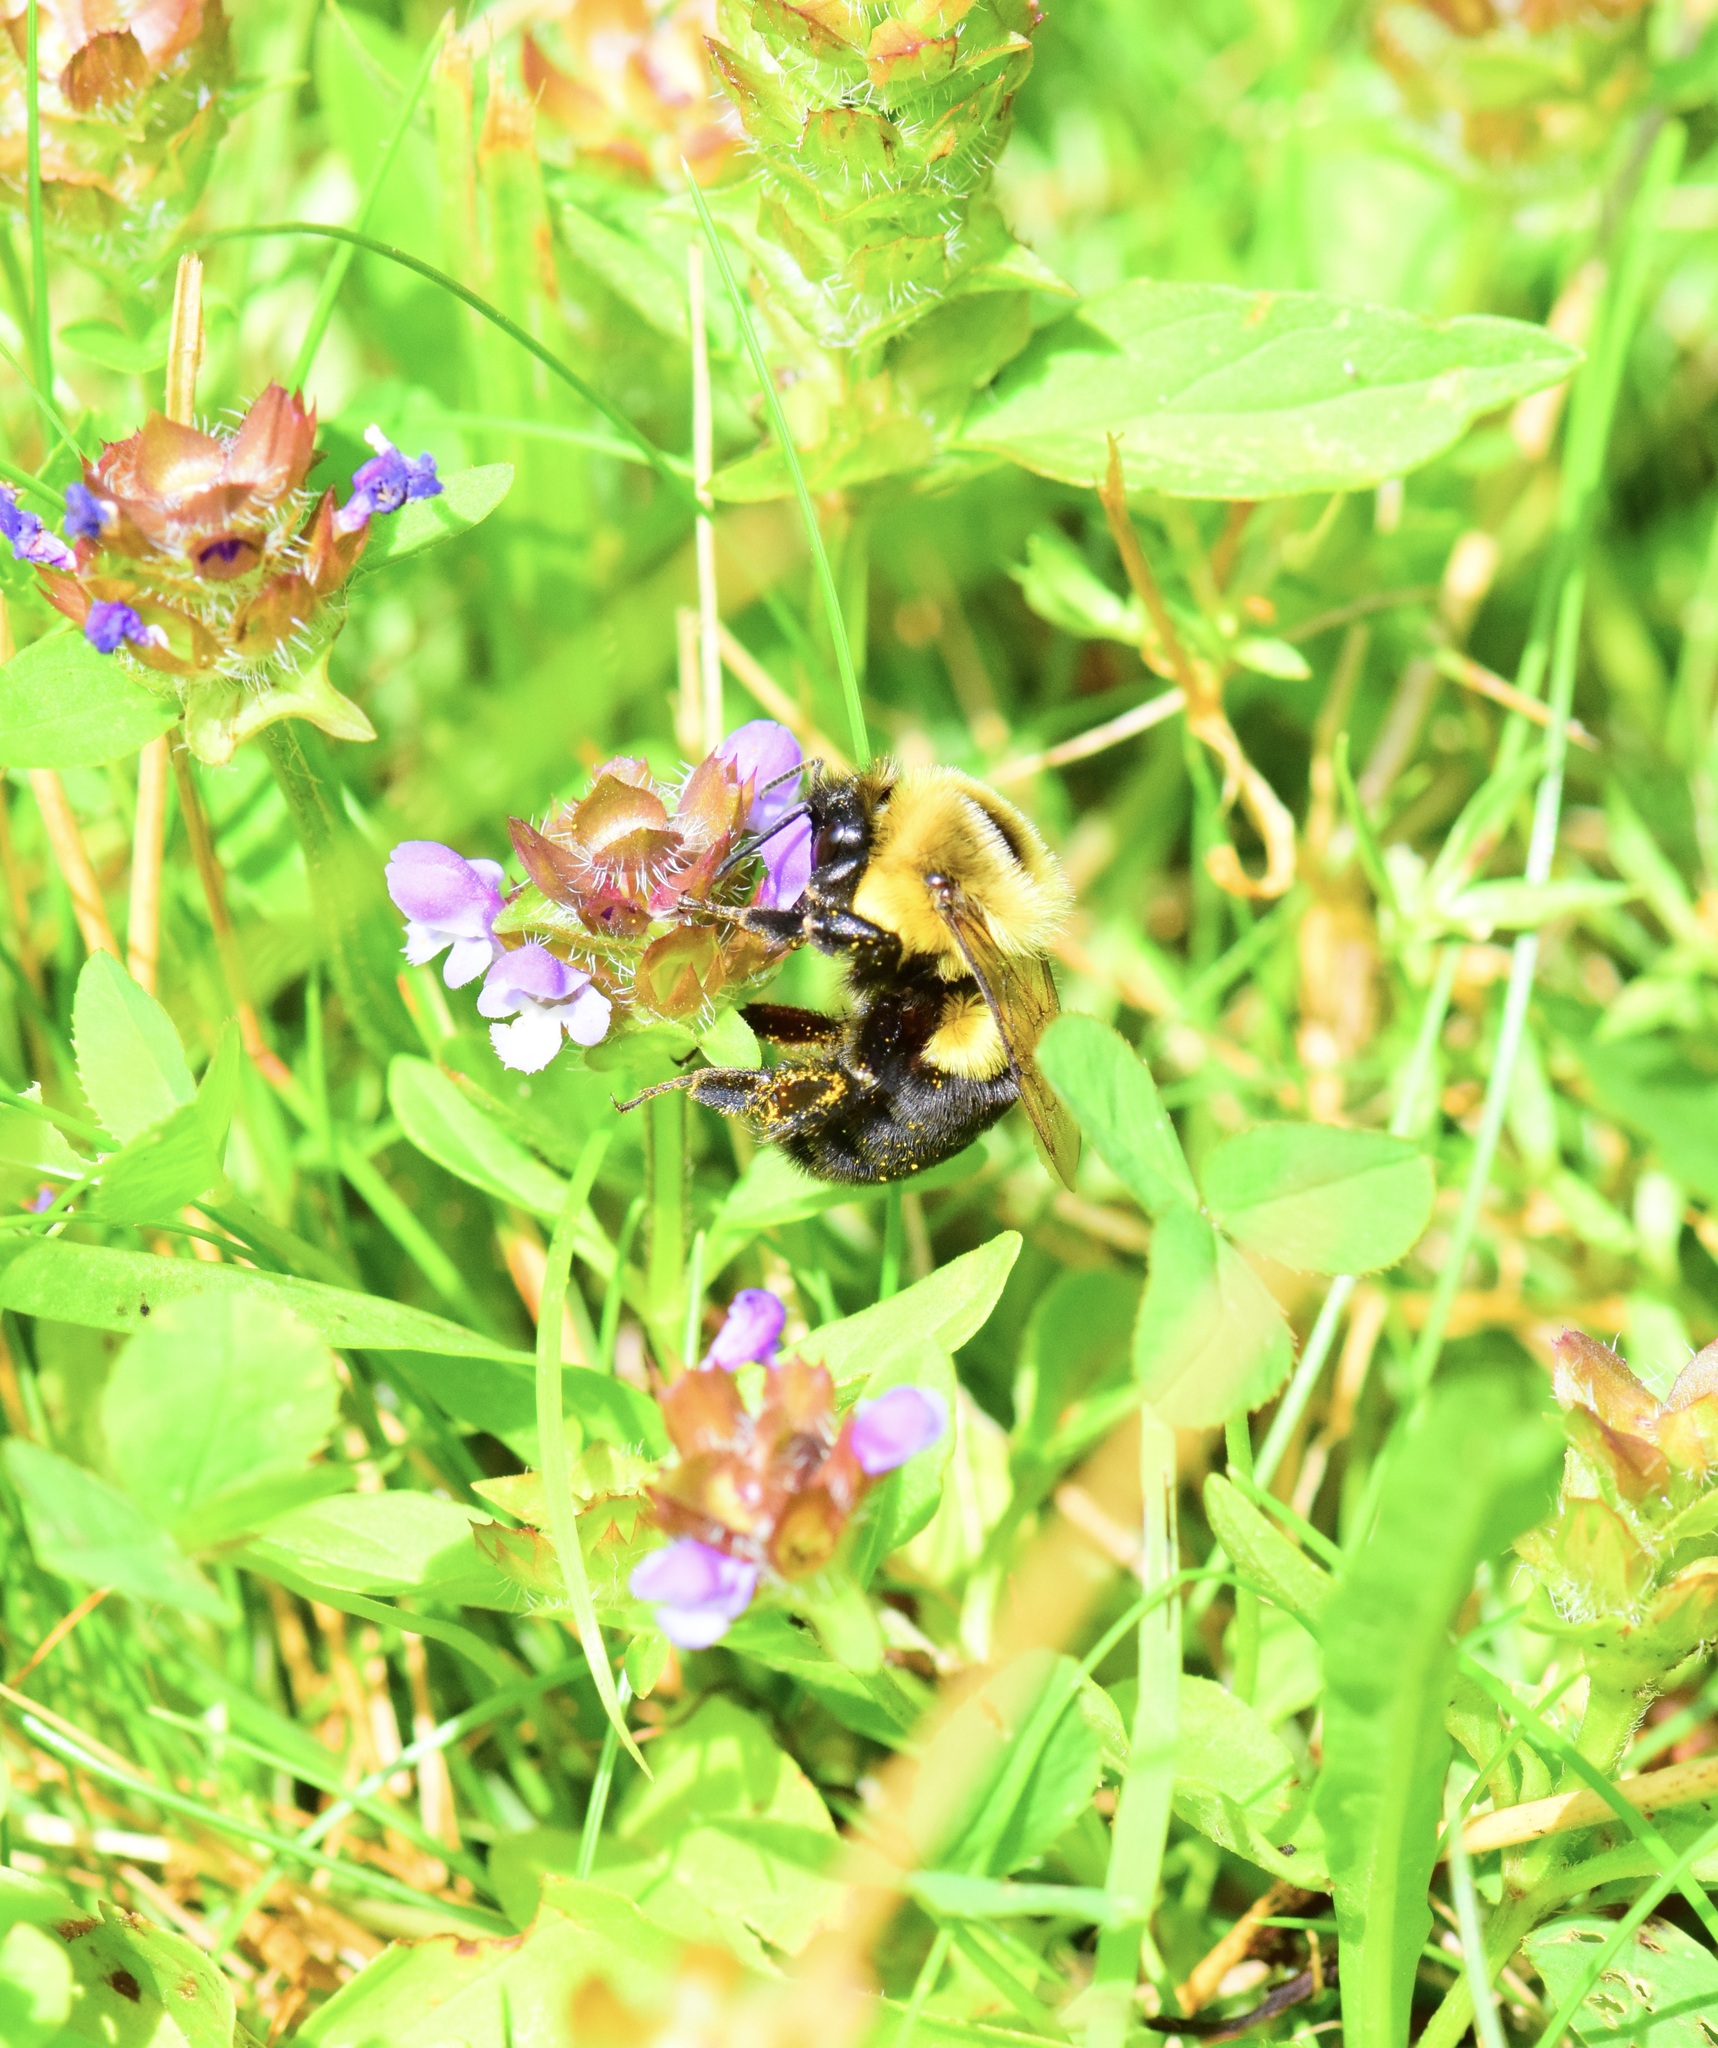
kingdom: Animalia
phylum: Arthropoda
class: Insecta
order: Hymenoptera
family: Apidae
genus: Bombus
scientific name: Bombus impatiens
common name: Common eastern bumble bee
